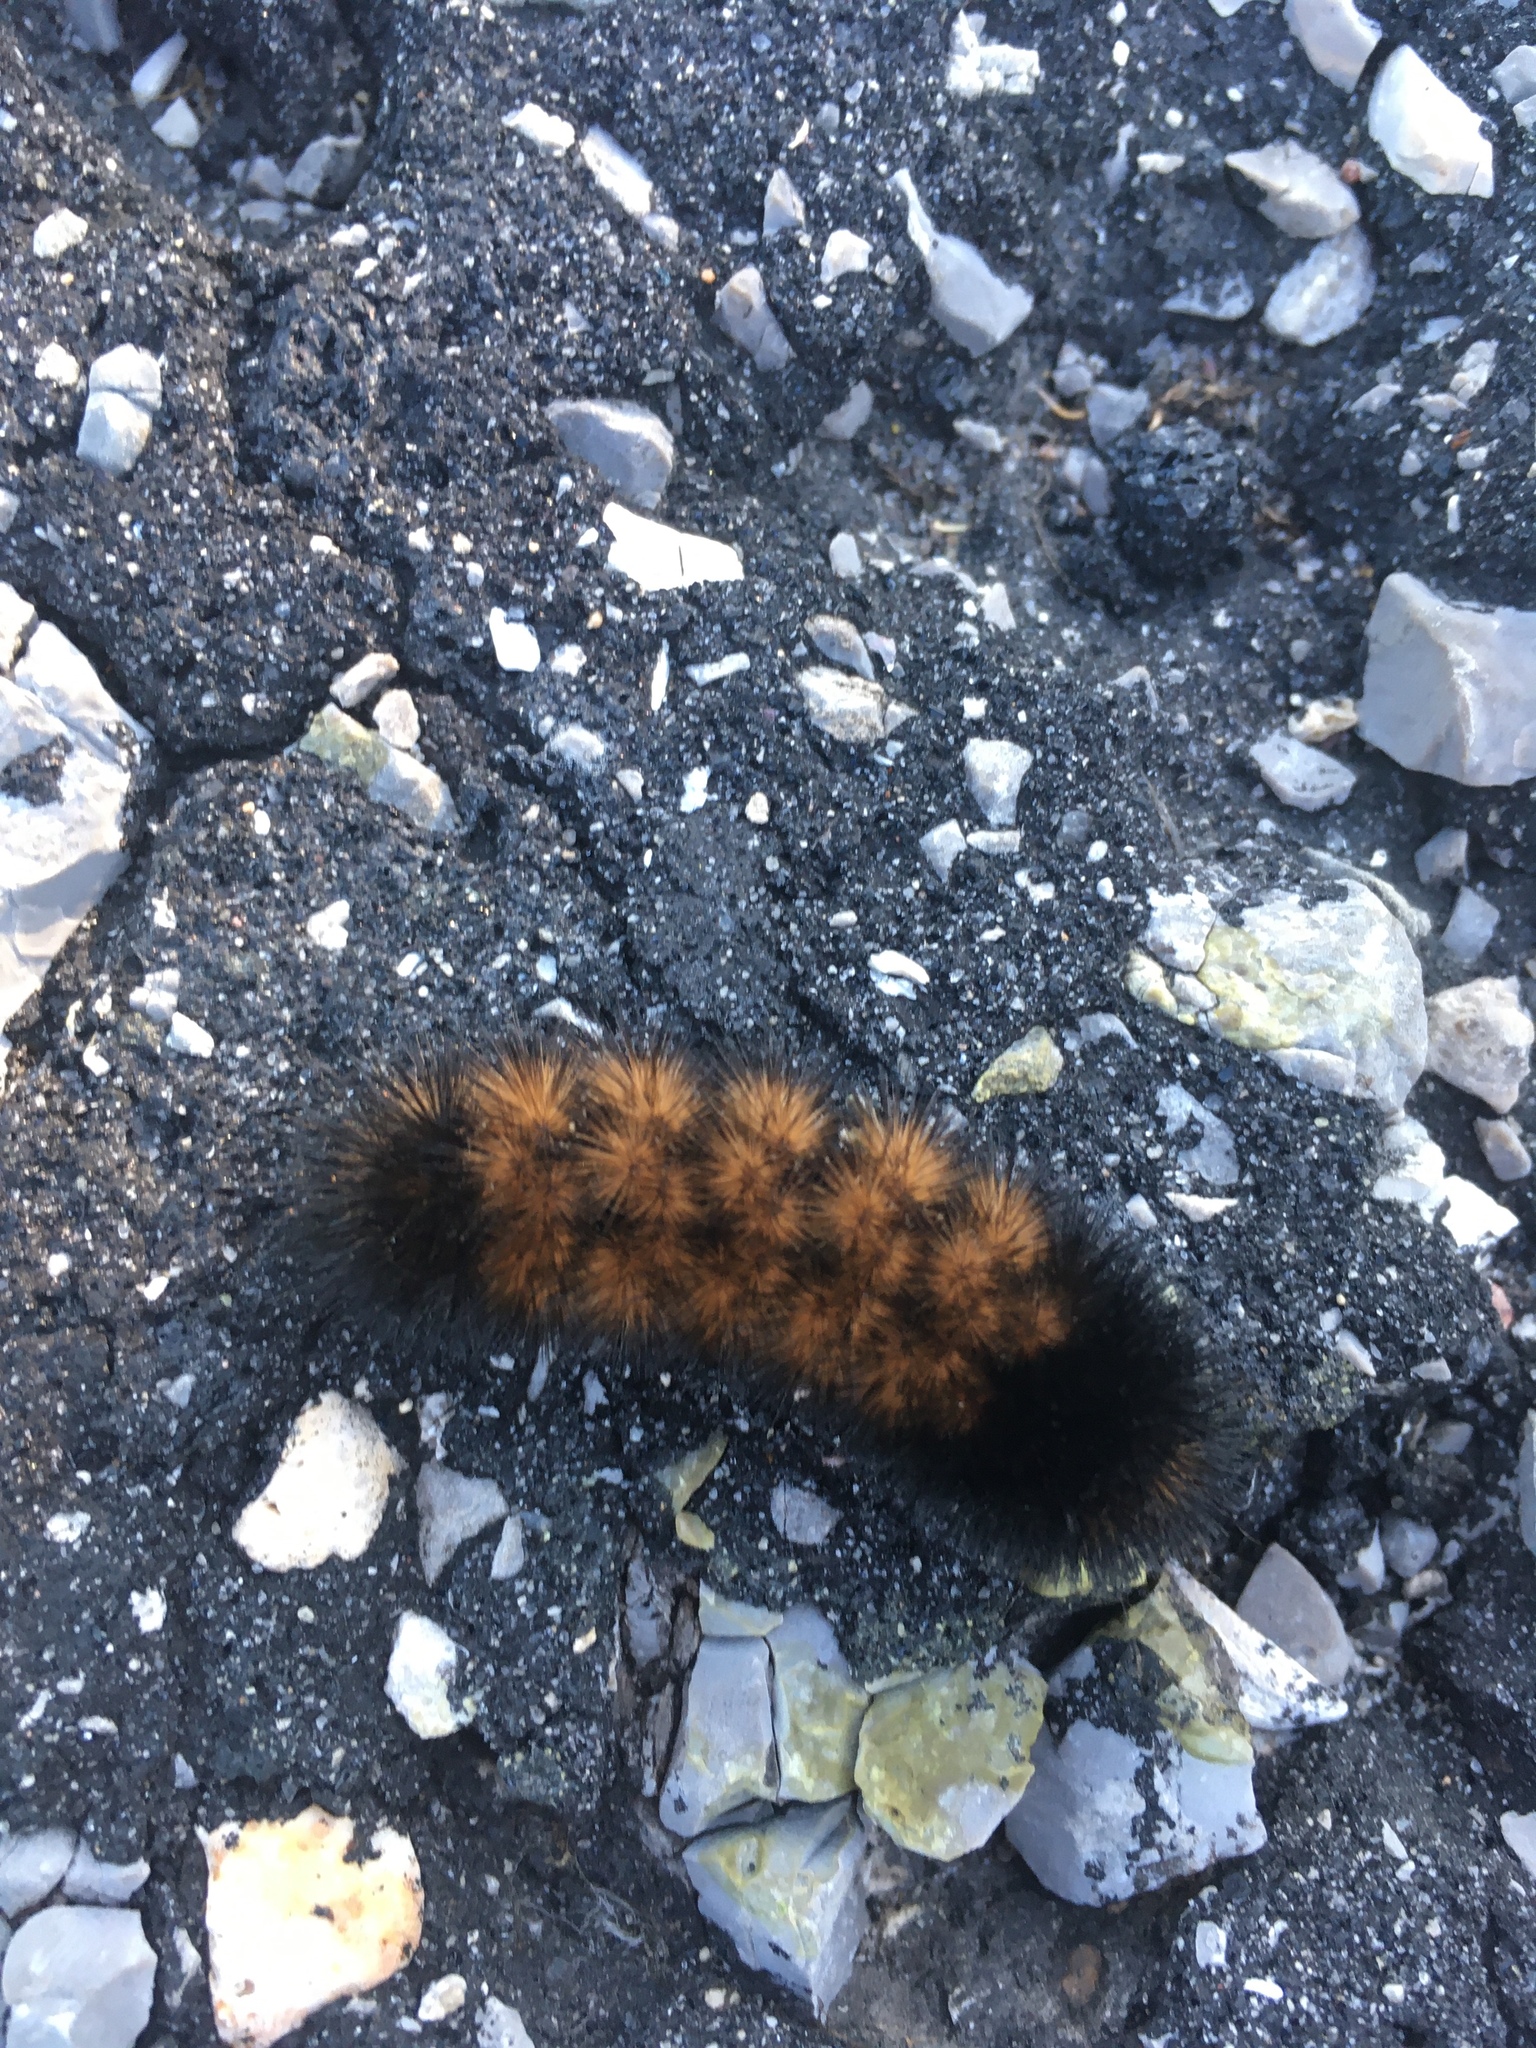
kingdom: Animalia
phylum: Arthropoda
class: Insecta
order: Lepidoptera
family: Erebidae
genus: Pyrrharctia
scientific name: Pyrrharctia isabella
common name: Isabella tiger moth
